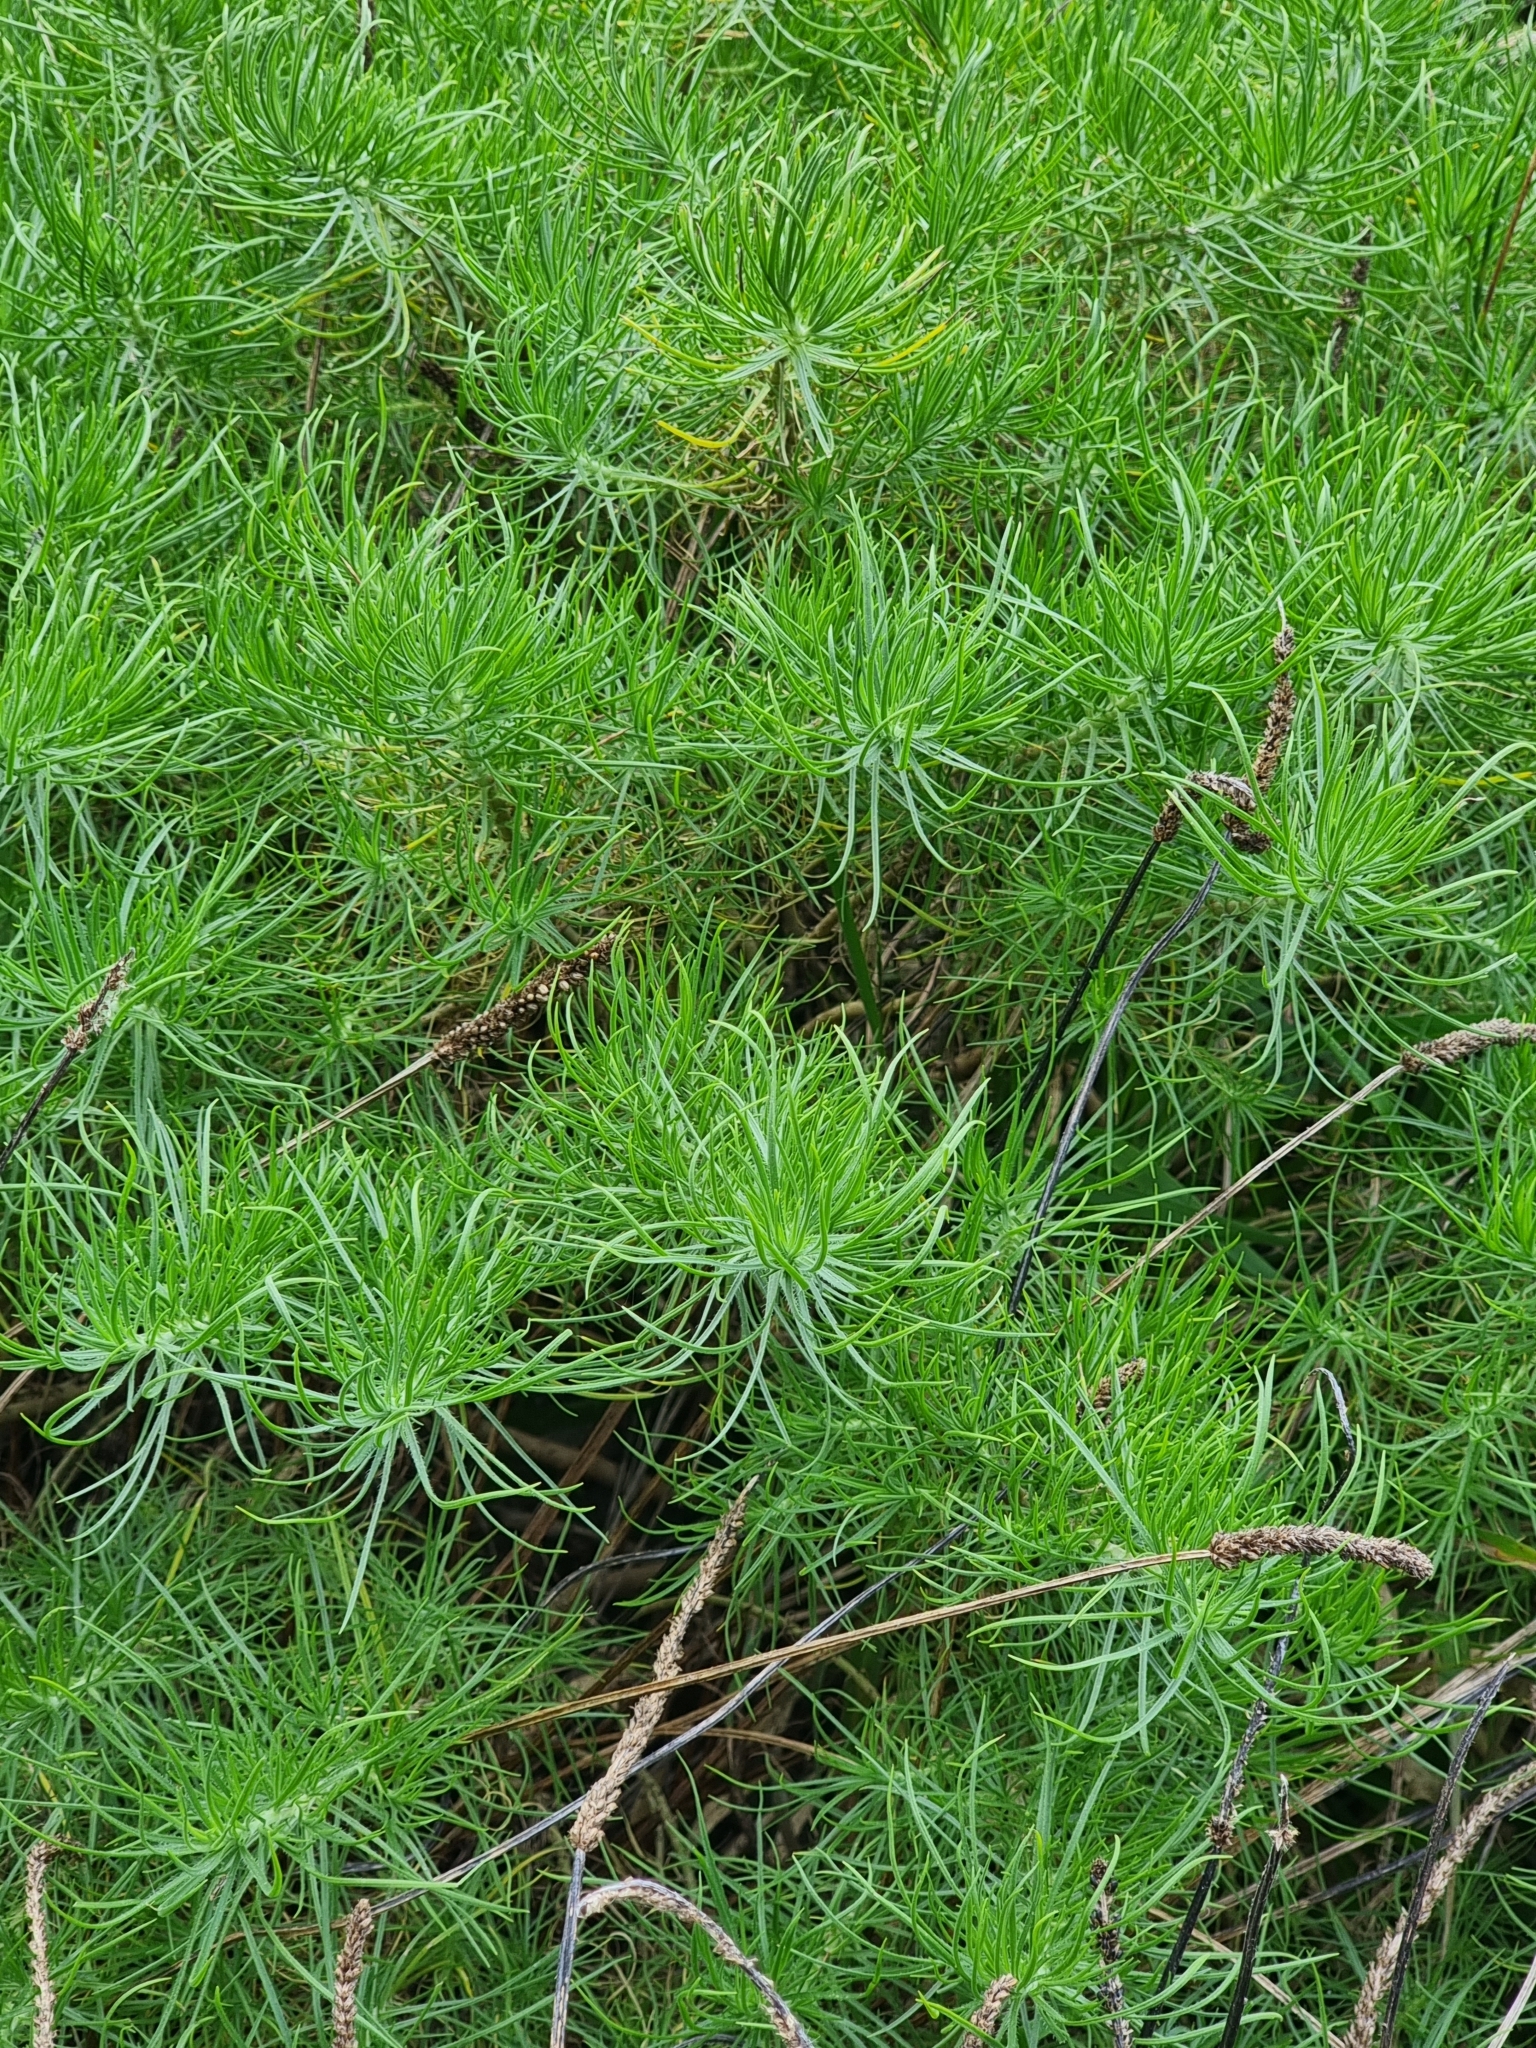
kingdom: Plantae
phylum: Tracheophyta
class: Magnoliopsida
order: Lamiales
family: Plantaginaceae
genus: Plantago
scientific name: Plantago arborescens
